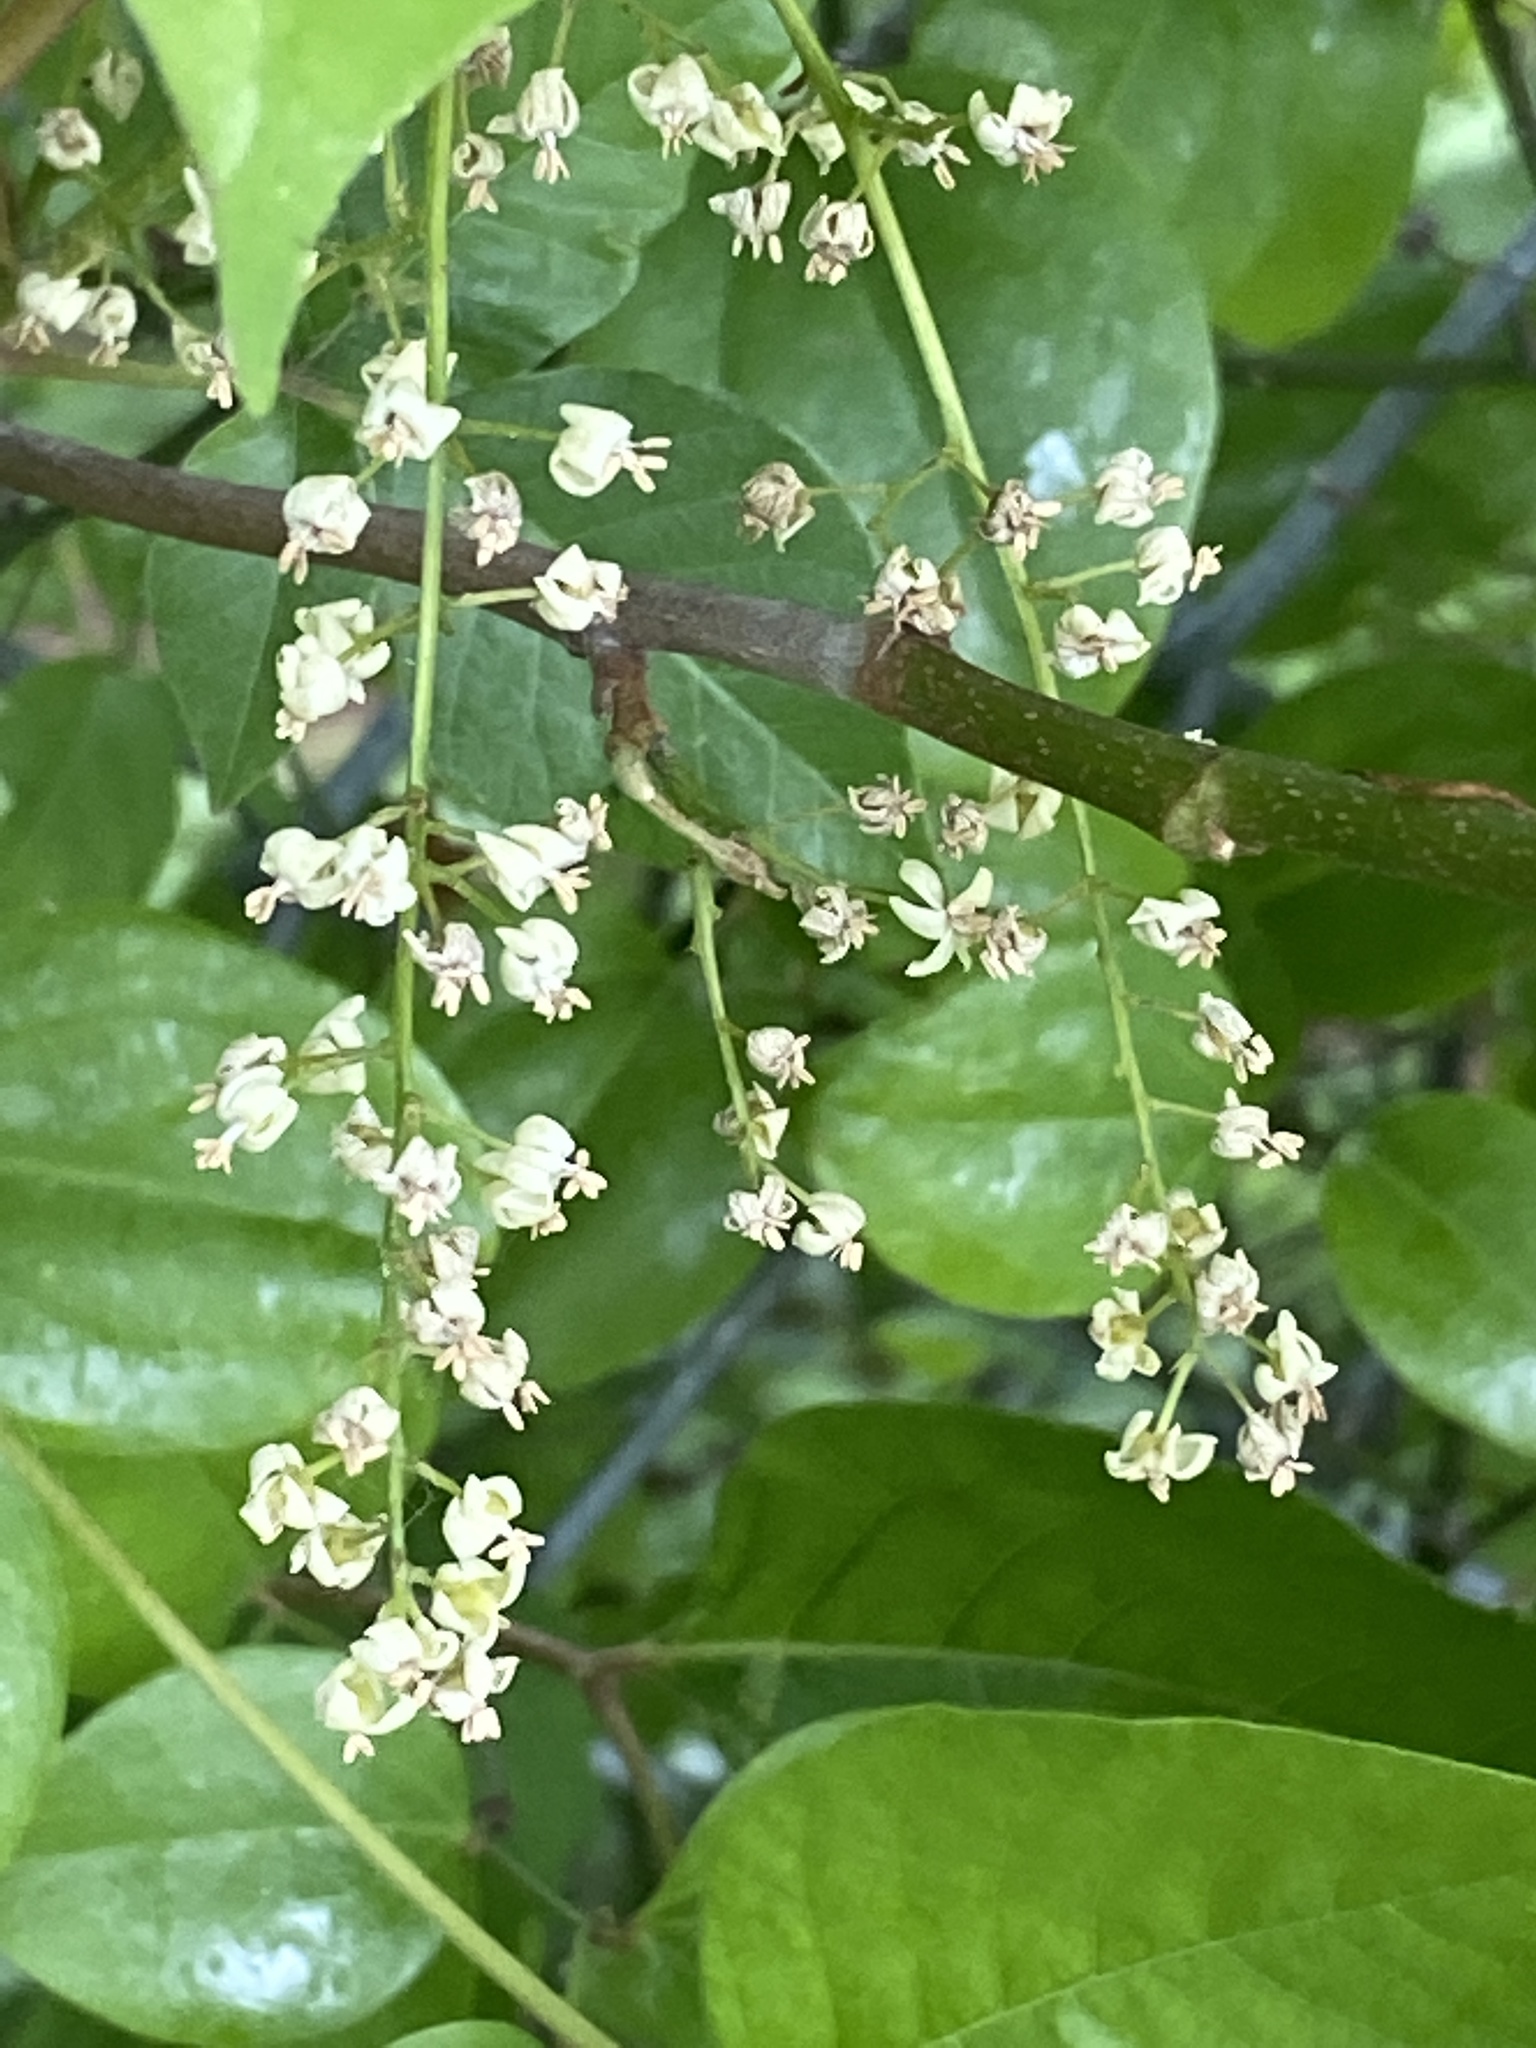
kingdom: Plantae
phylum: Tracheophyta
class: Magnoliopsida
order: Sapindales
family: Anacardiaceae
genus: Toxicodendron
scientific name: Toxicodendron radicans
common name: Poison ivy
